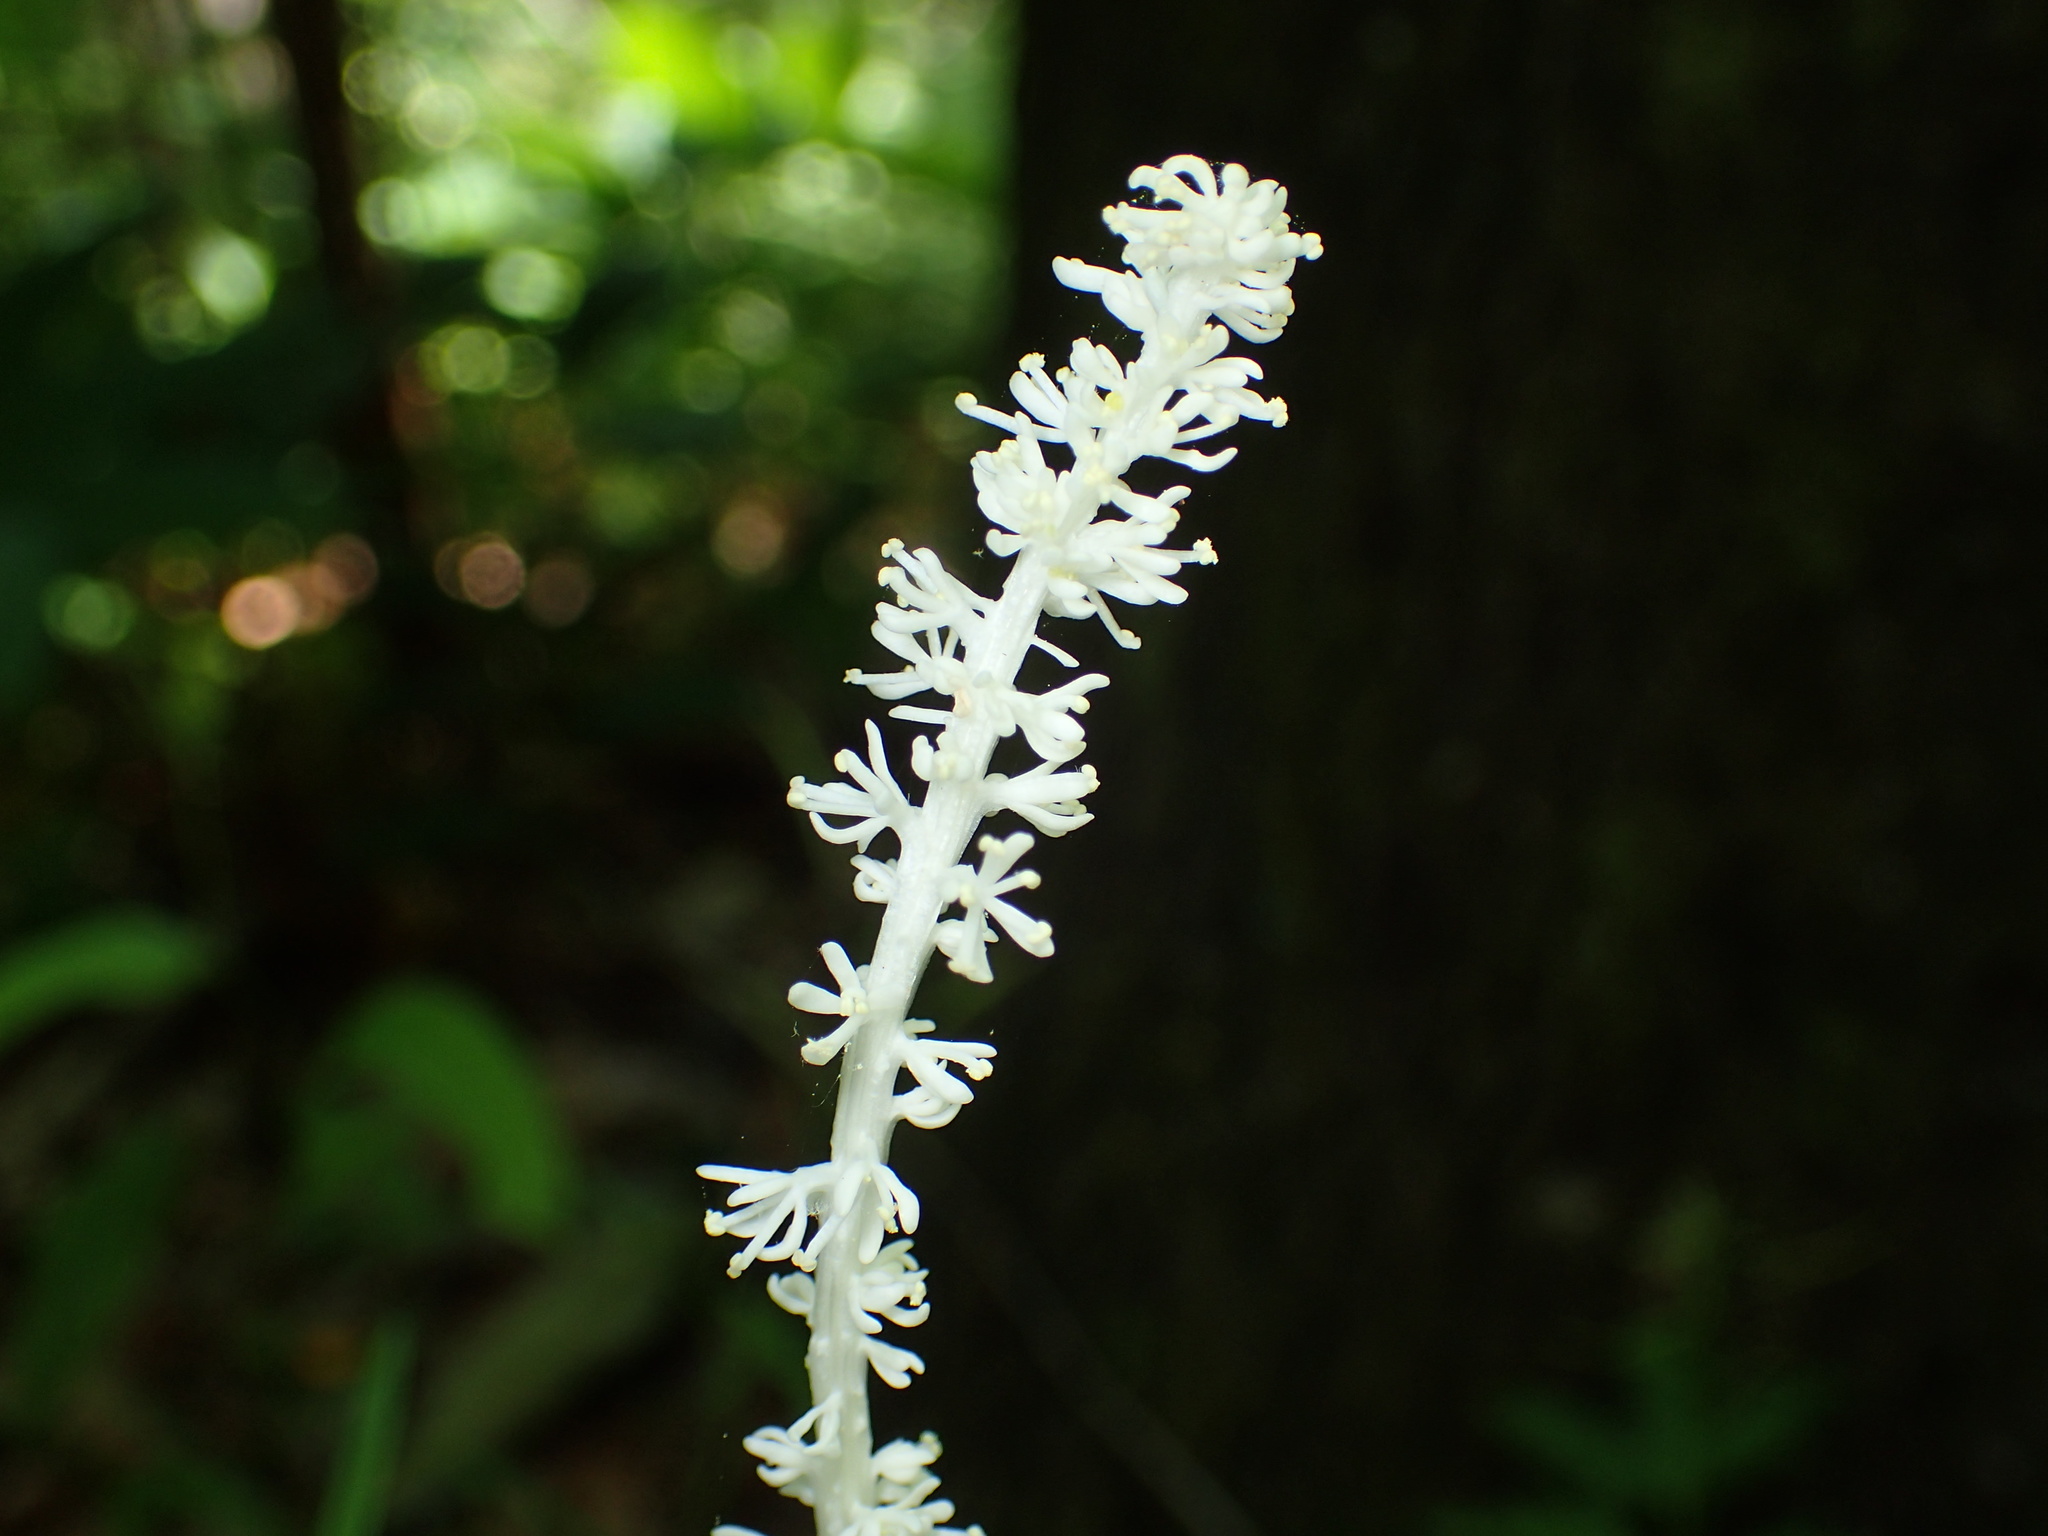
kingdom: Plantae
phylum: Tracheophyta
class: Liliopsida
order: Liliales
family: Melanthiaceae
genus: Chamaelirium
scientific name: Chamaelirium luteum
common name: Fairy-wand
